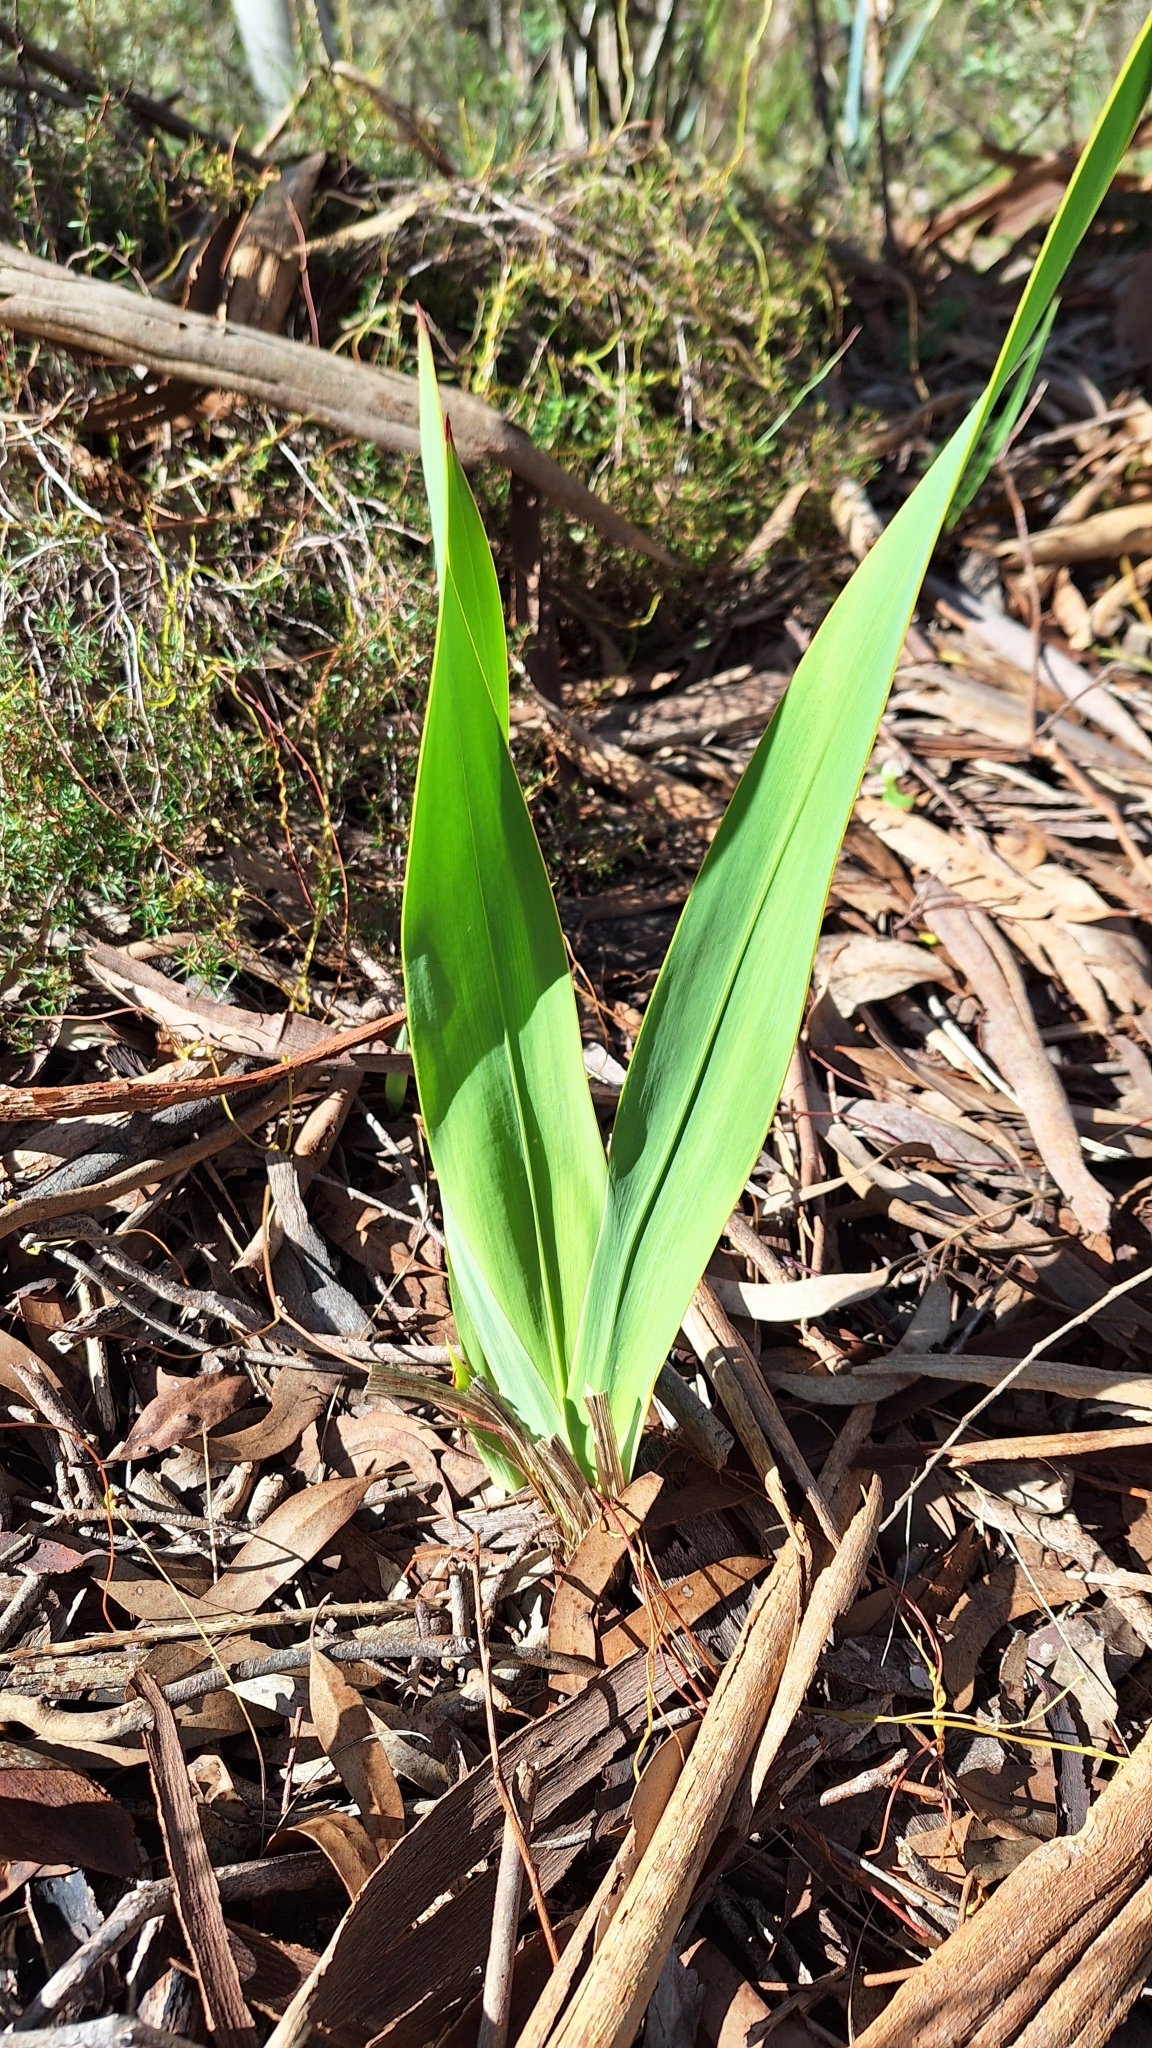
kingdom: Plantae
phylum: Tracheophyta
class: Liliopsida
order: Asparagales
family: Iridaceae
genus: Watsonia
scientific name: Watsonia meriana
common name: Bulbil bugle-lily
